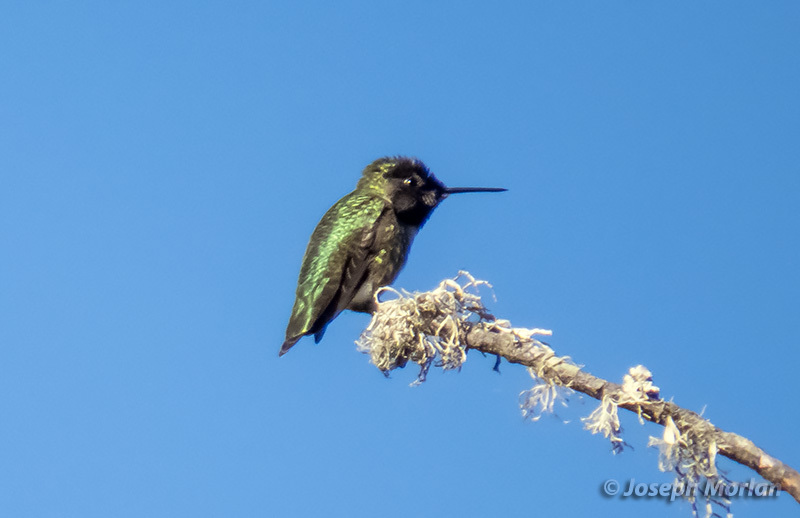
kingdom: Animalia
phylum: Chordata
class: Aves
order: Apodiformes
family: Trochilidae
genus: Calypte
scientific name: Calypte anna
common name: Anna's hummingbird
